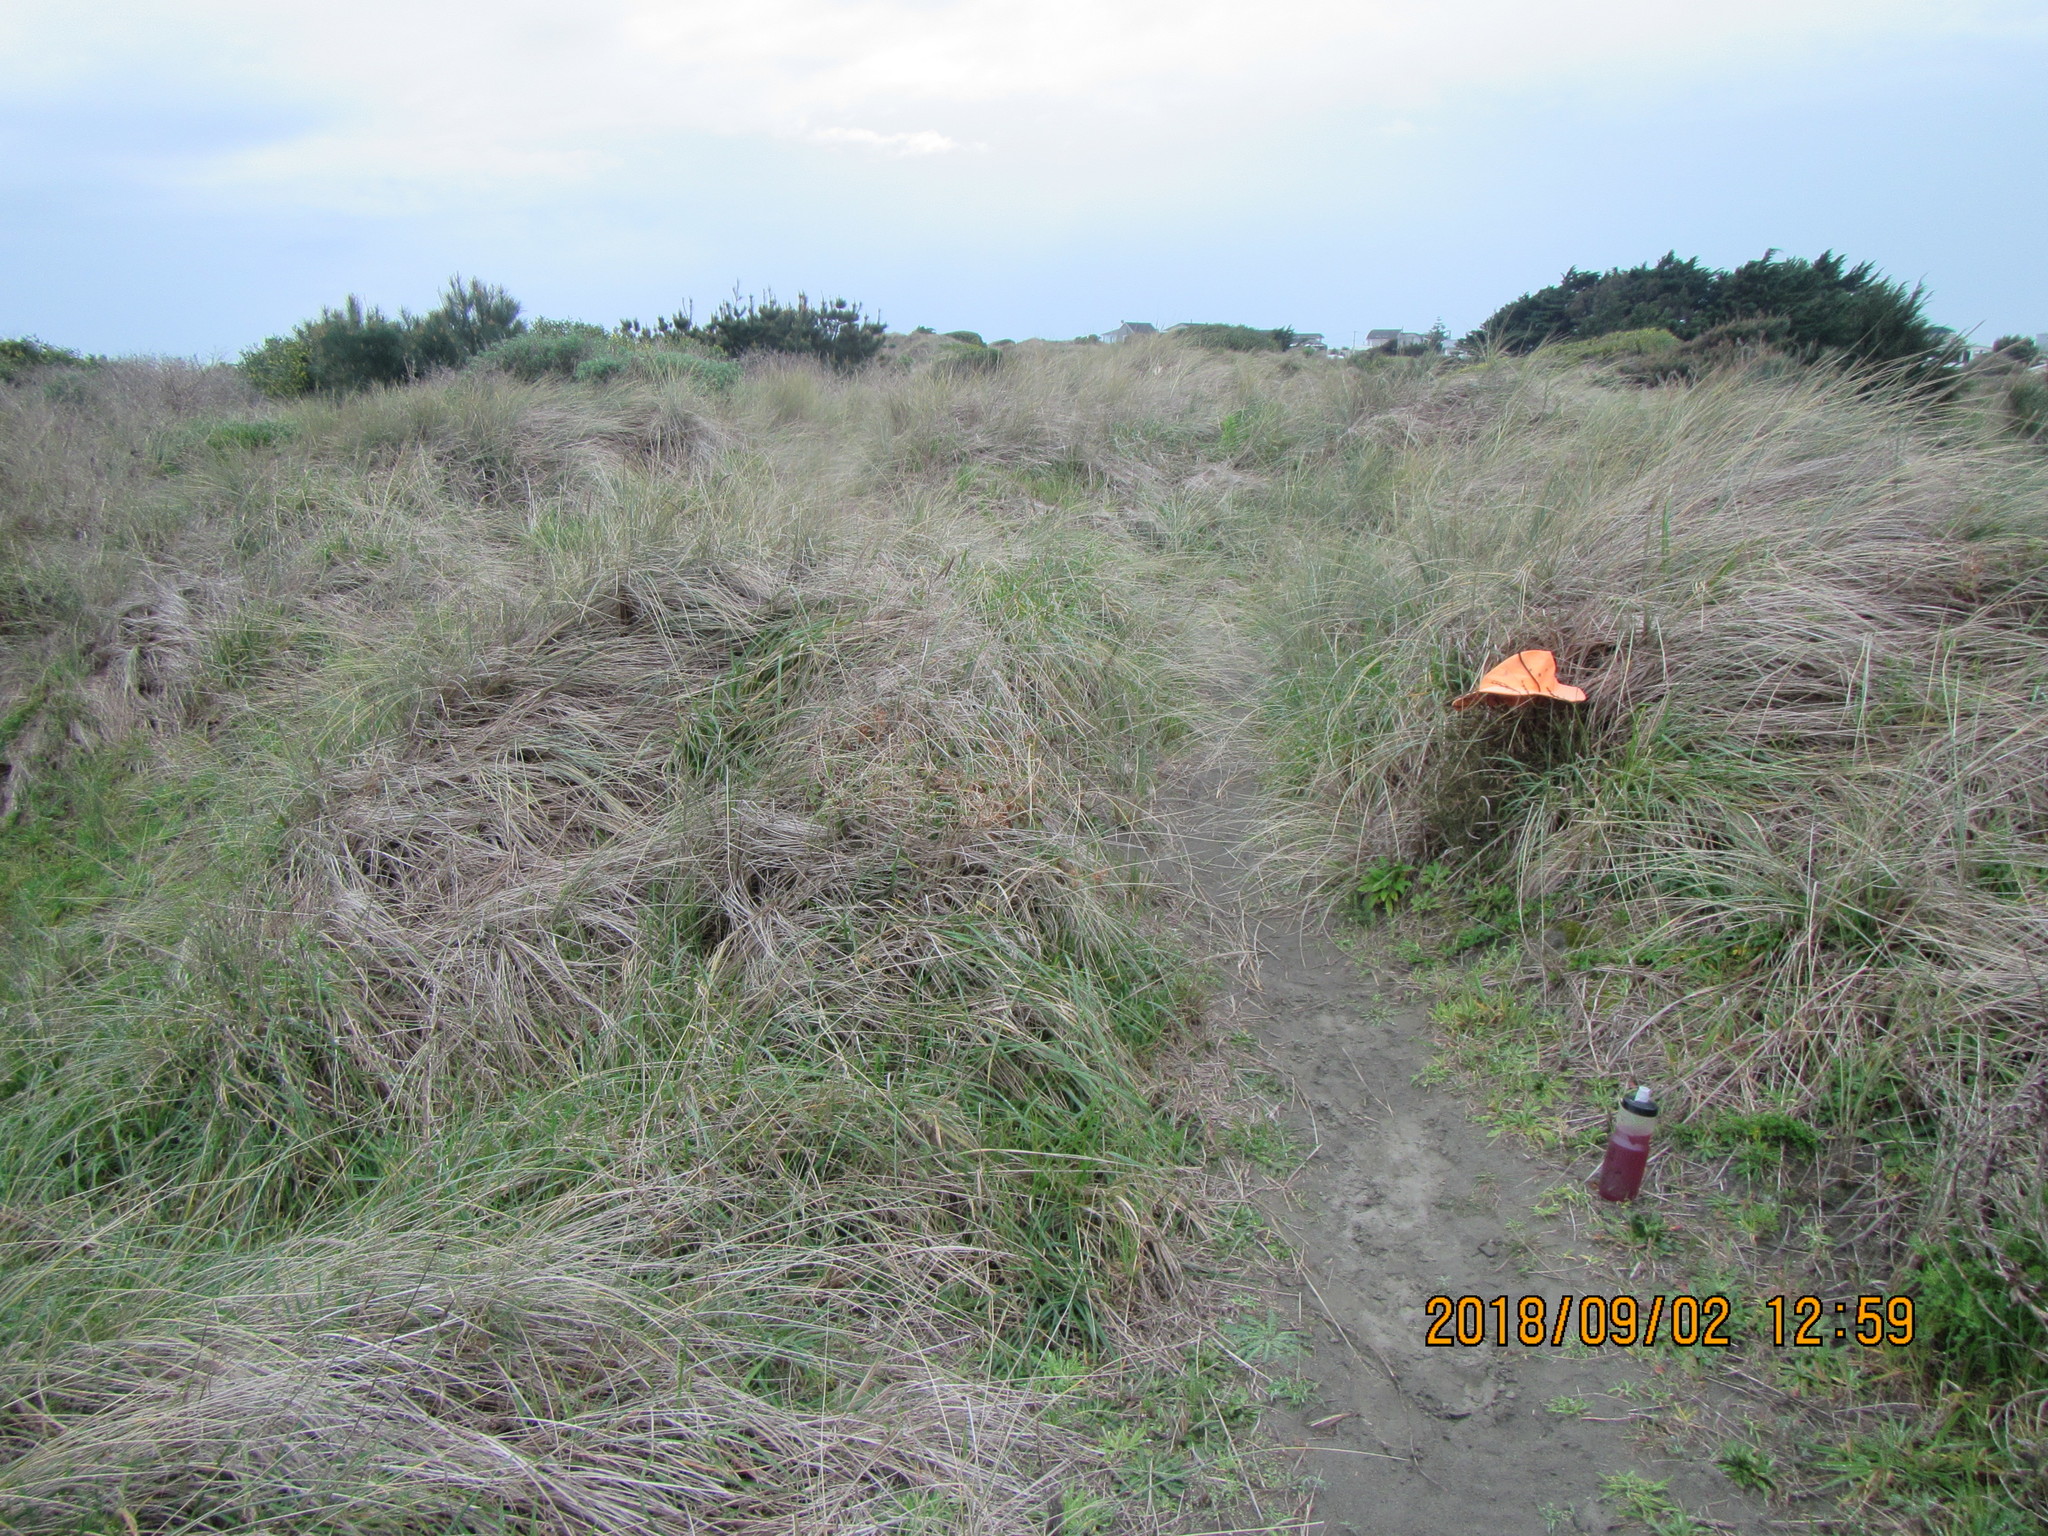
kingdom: Plantae
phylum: Tracheophyta
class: Magnoliopsida
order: Gentianales
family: Rubiaceae
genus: Coprosma
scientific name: Coprosma acerosa
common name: Sand coprosma
